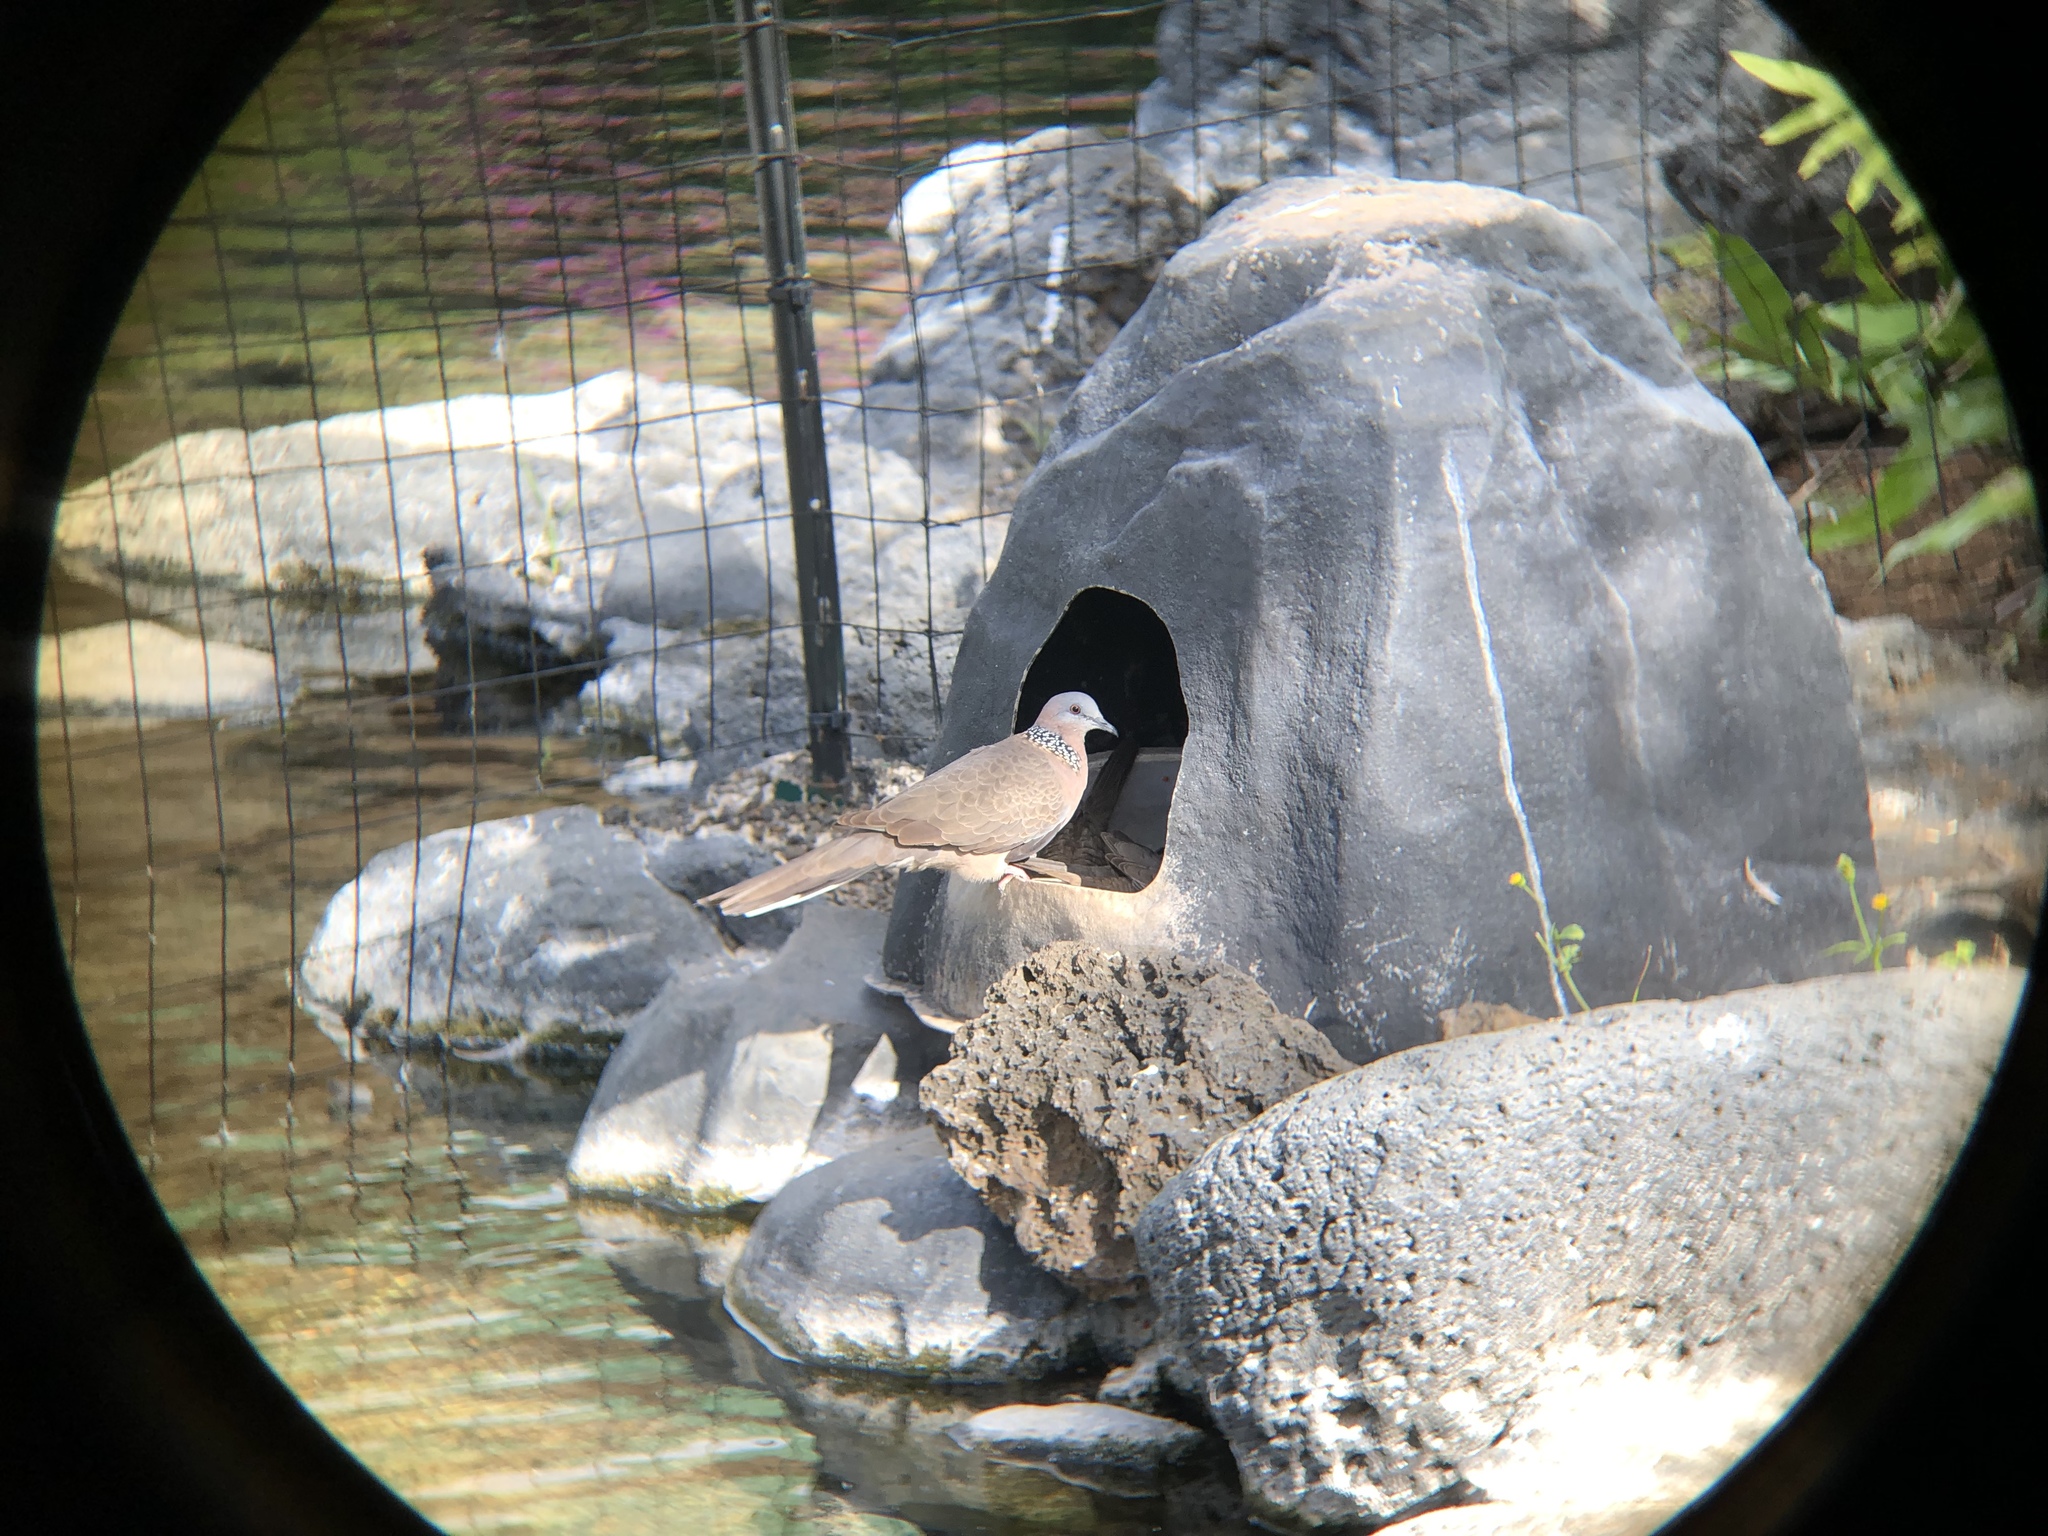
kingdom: Animalia
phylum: Chordata
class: Aves
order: Columbiformes
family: Columbidae
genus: Spilopelia
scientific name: Spilopelia chinensis
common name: Spotted dove
